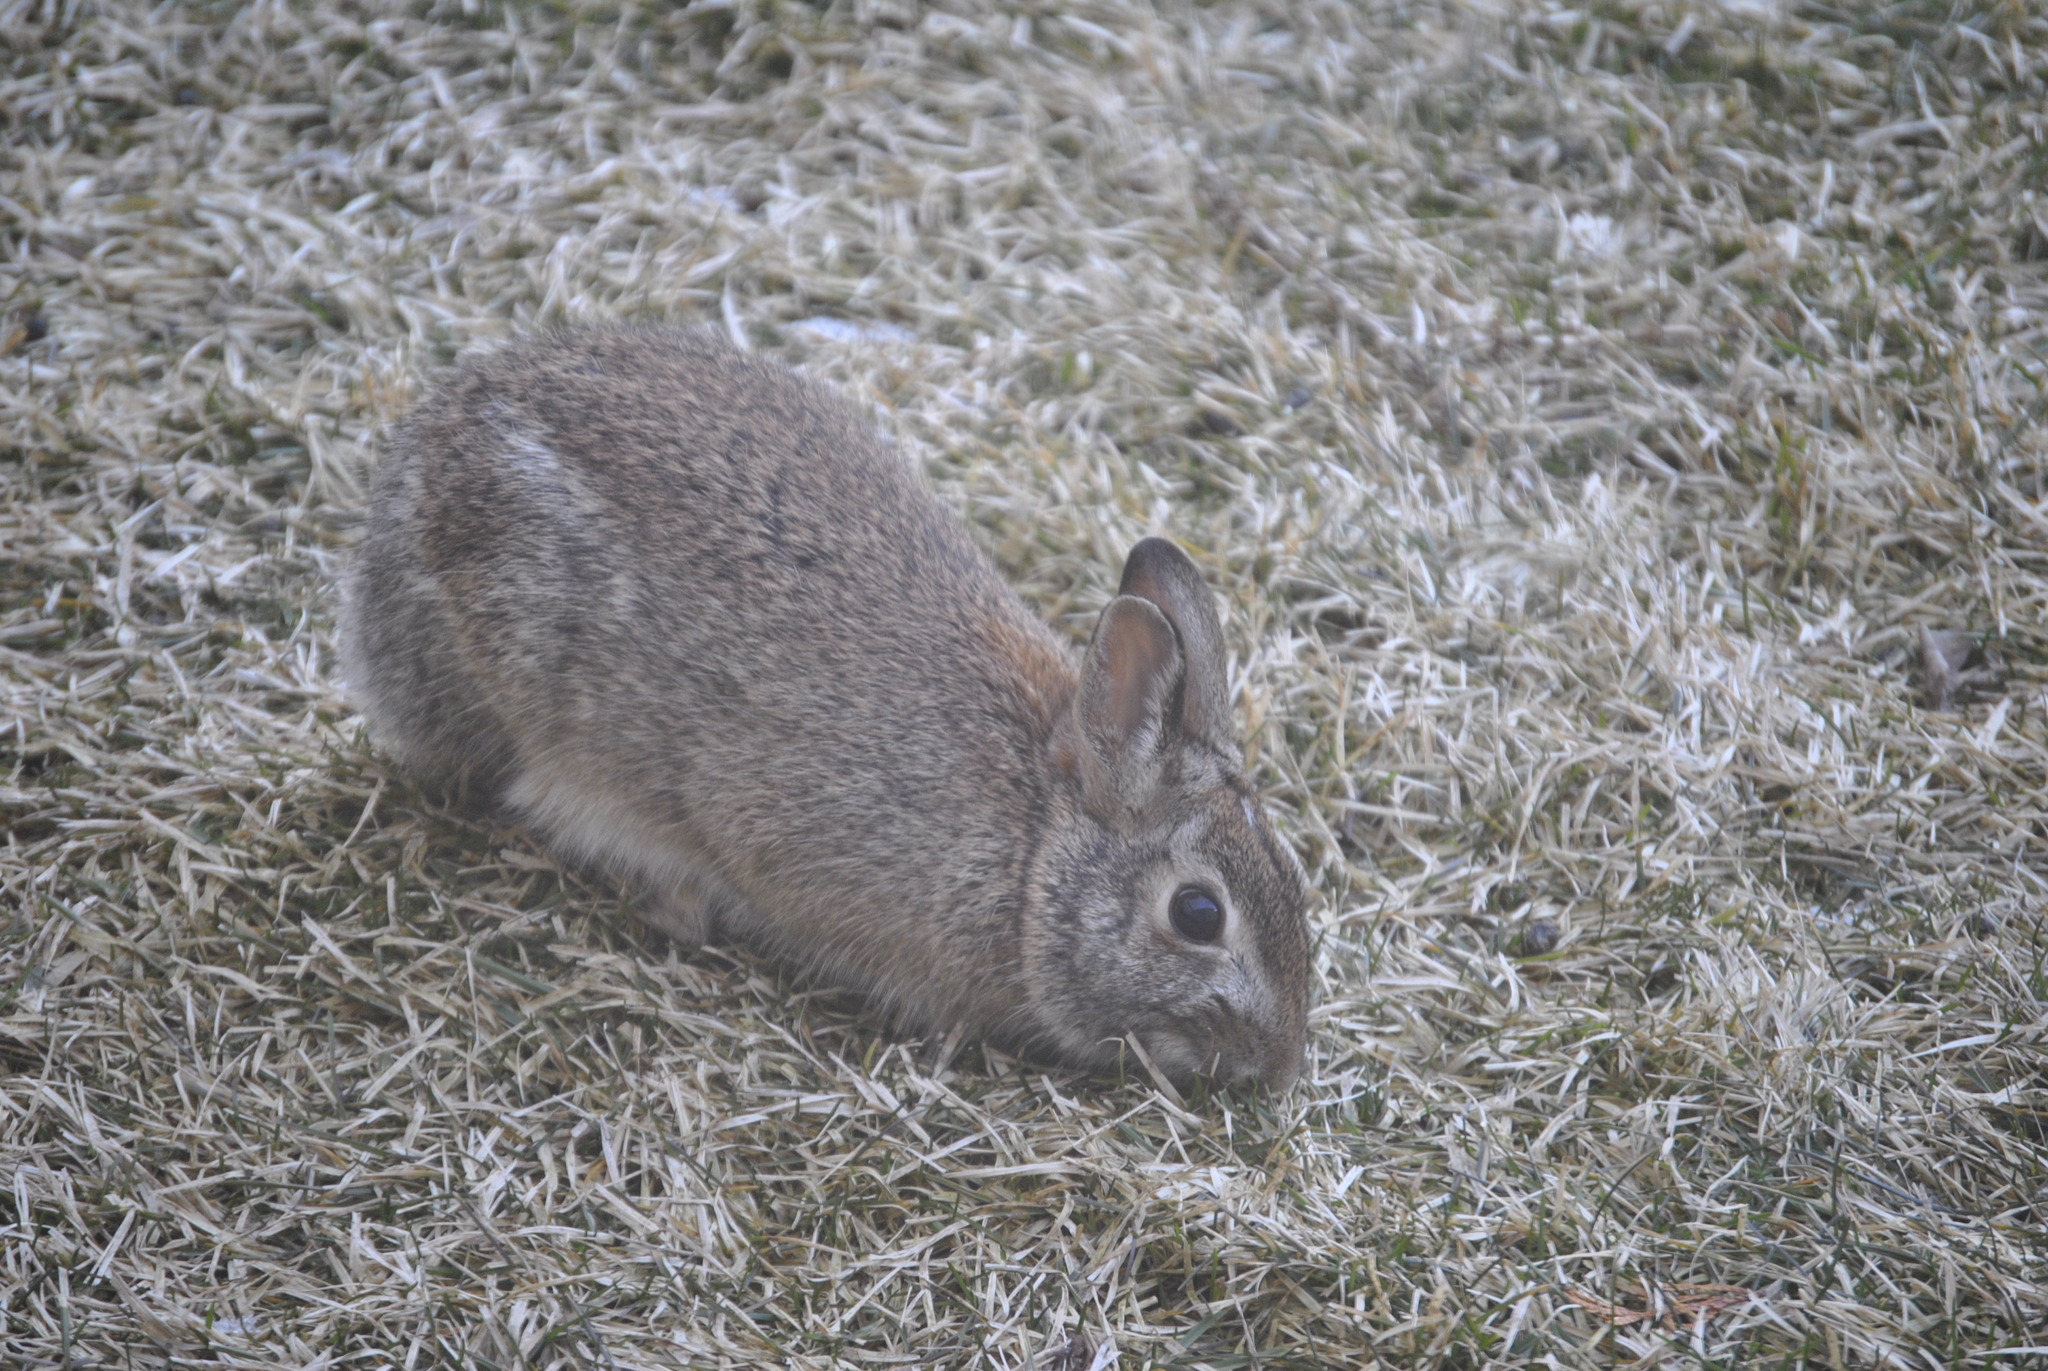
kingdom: Animalia
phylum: Chordata
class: Mammalia
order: Lagomorpha
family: Leporidae
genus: Sylvilagus
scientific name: Sylvilagus floridanus
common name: Eastern cottontail
